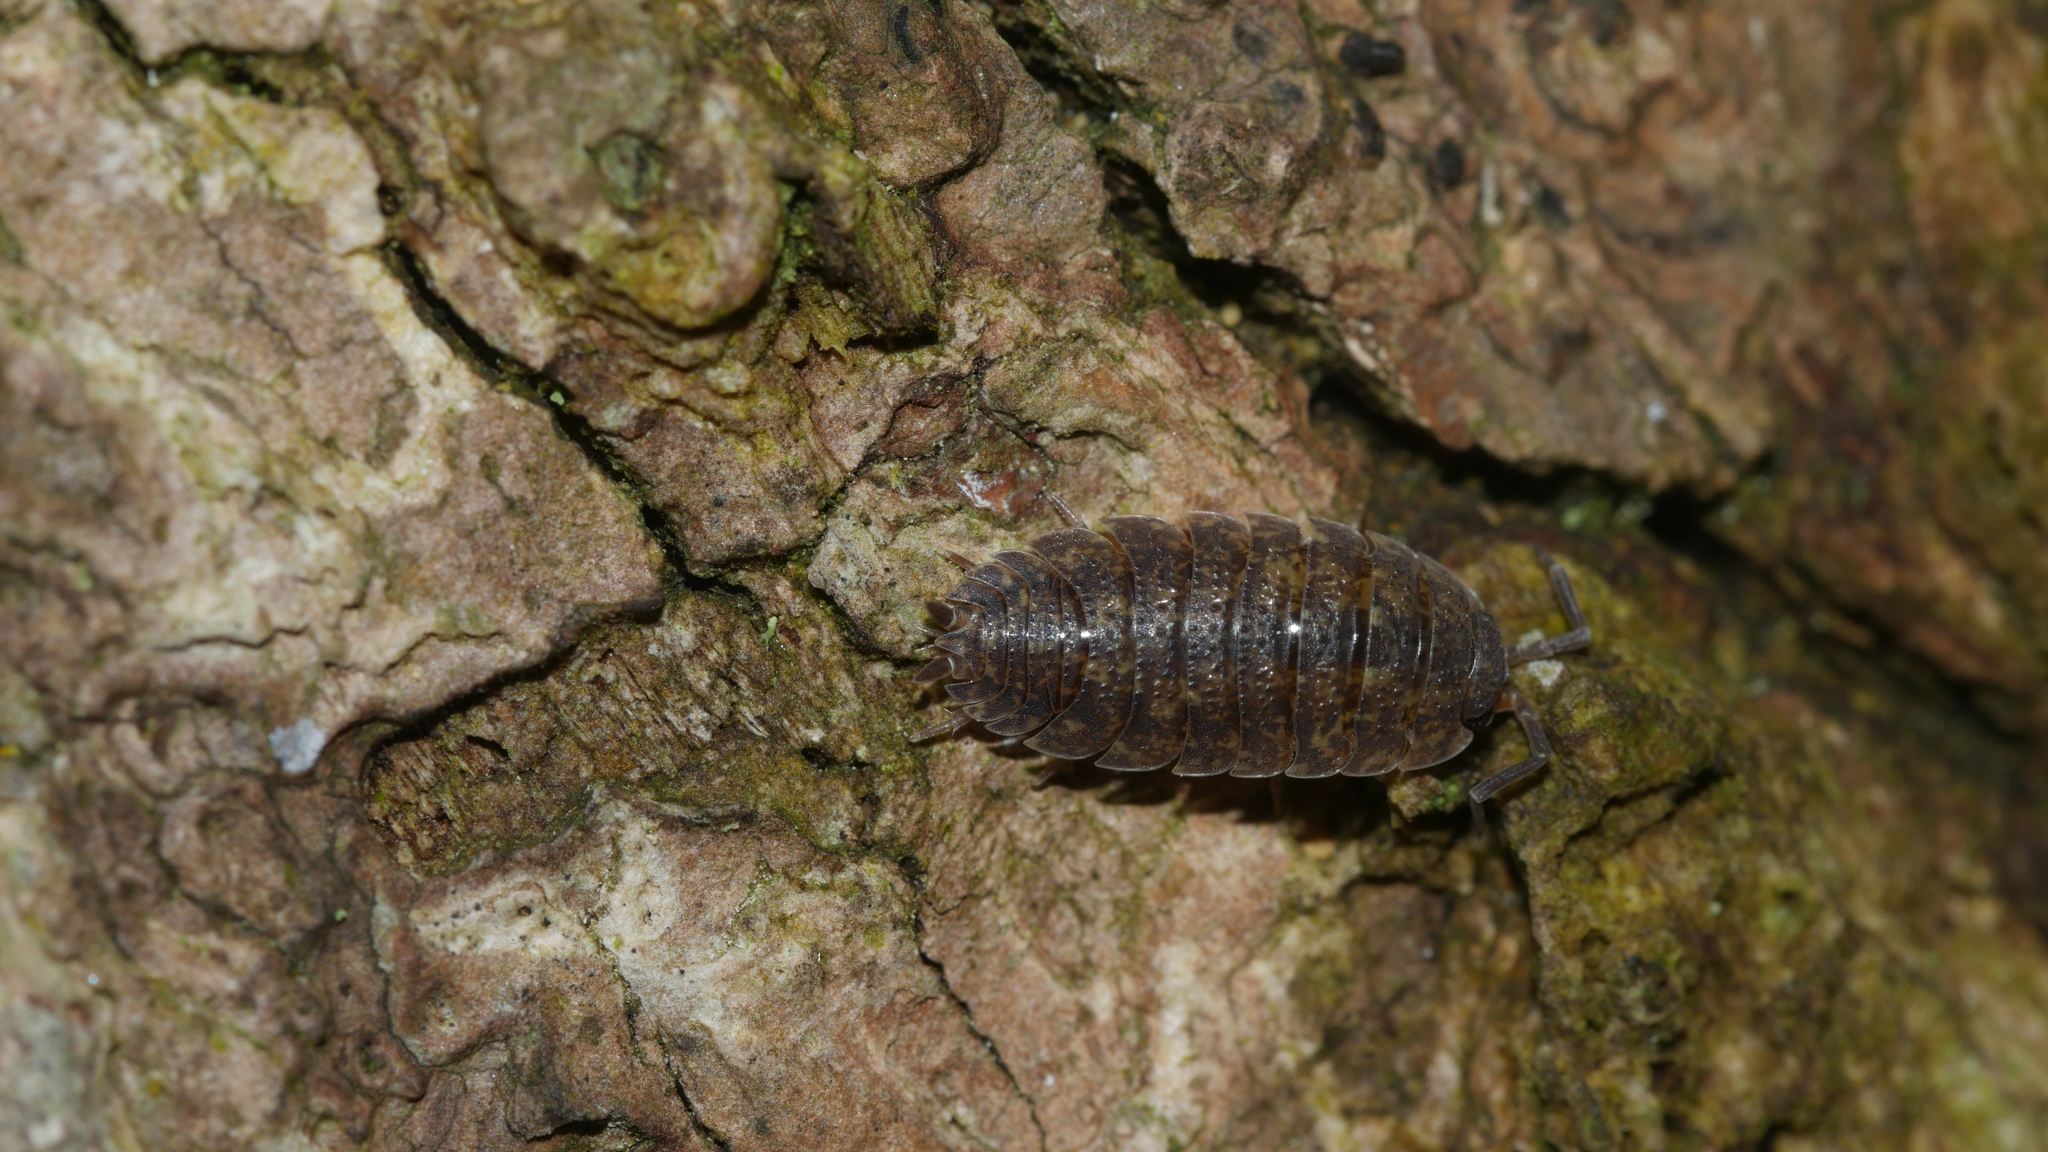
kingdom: Animalia
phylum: Arthropoda
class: Malacostraca
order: Isopoda
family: Porcellionidae
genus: Porcellio
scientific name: Porcellio scaber
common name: Common rough woodlouse
